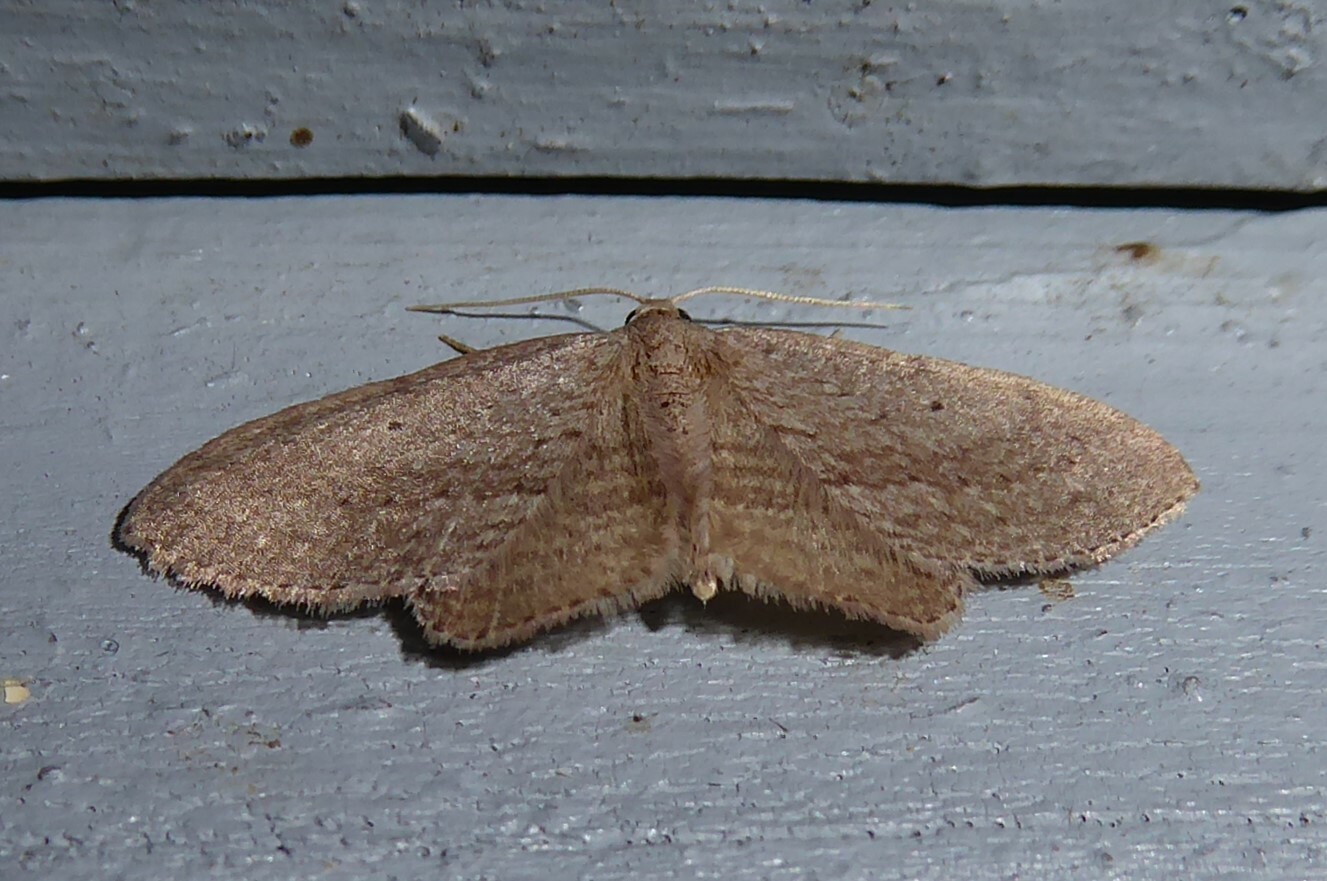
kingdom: Animalia
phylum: Arthropoda
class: Insecta
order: Lepidoptera
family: Geometridae
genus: Poecilasthena
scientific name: Poecilasthena schistaria
